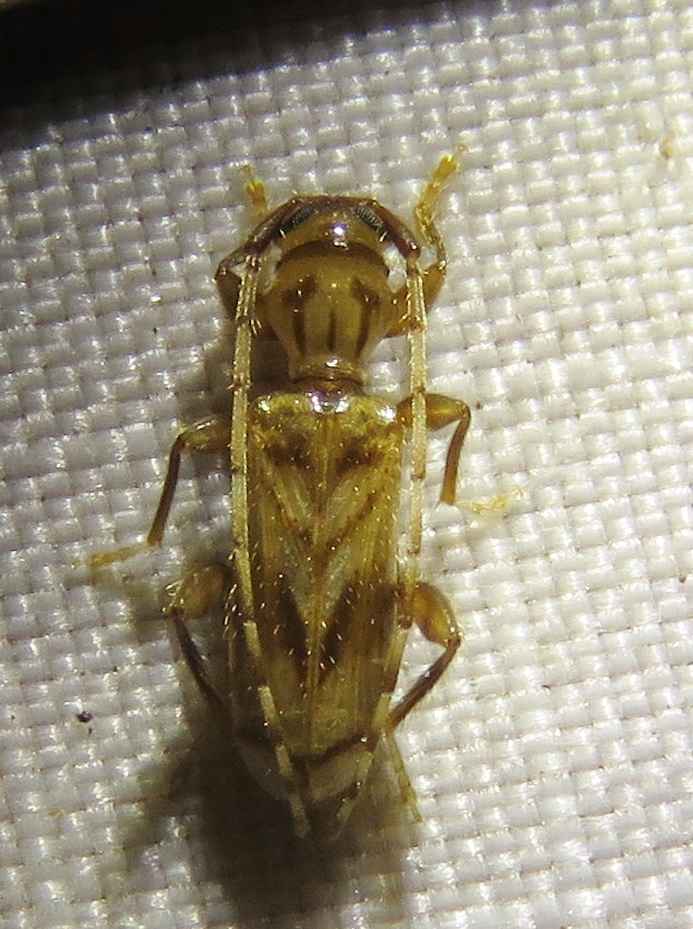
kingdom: Animalia
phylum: Arthropoda
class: Insecta
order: Coleoptera
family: Cerambycidae
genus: Obrium
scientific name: Obrium maculatum
